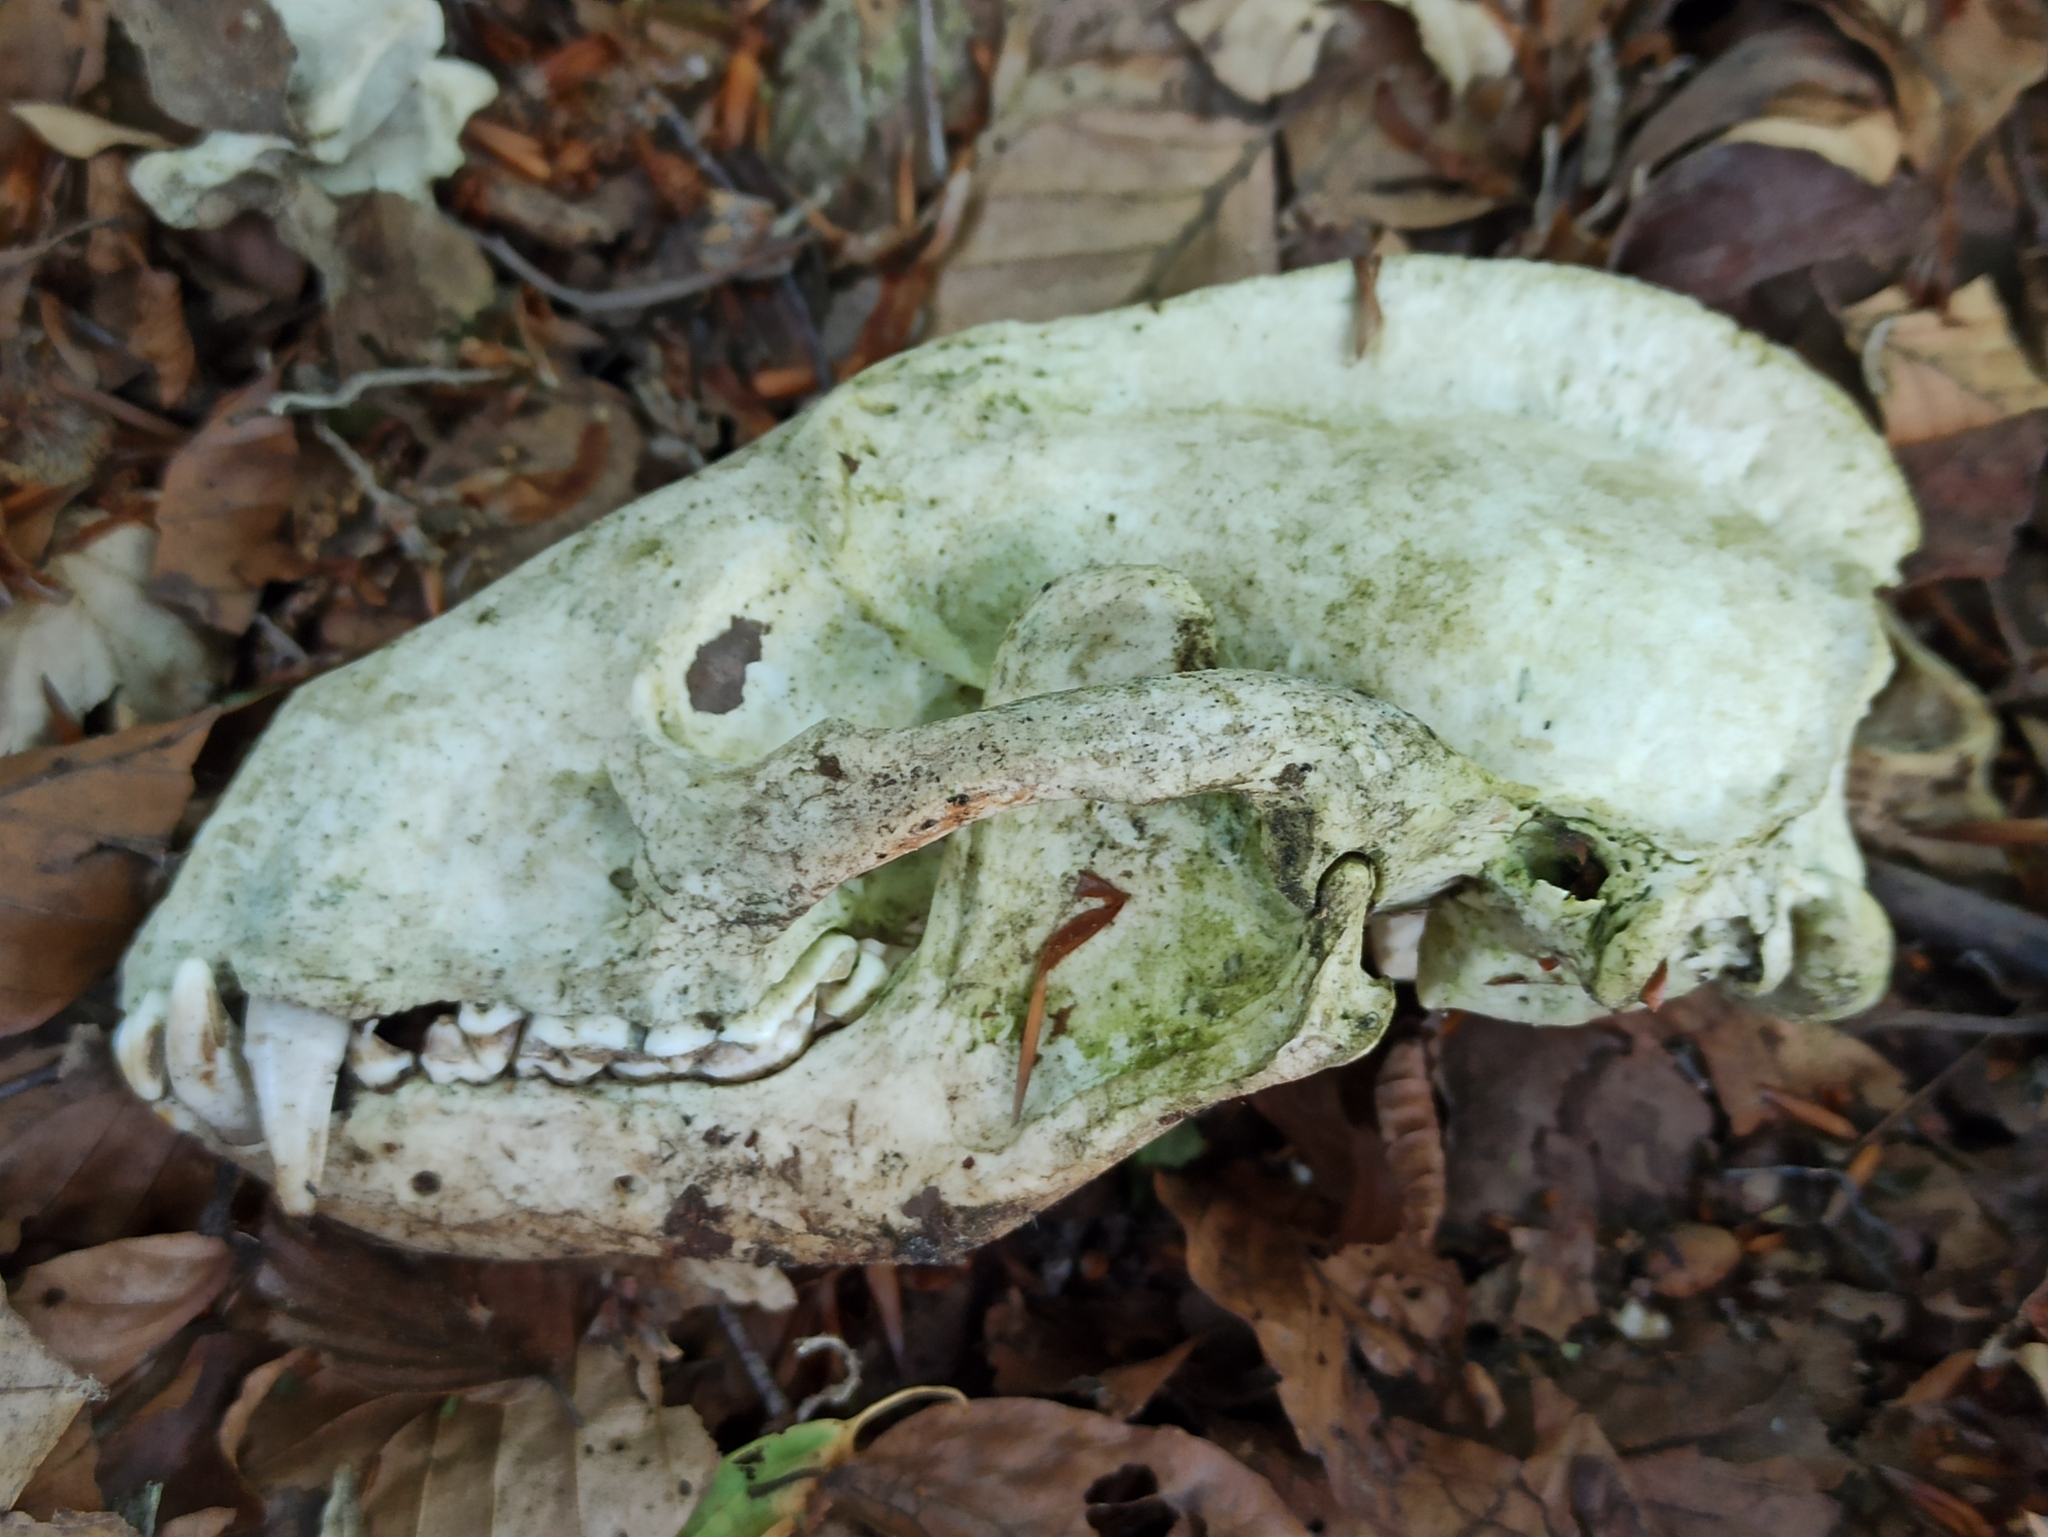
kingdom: Animalia
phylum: Chordata
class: Mammalia
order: Carnivora
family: Mustelidae
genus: Meles
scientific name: Meles meles
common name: Eurasian badger
